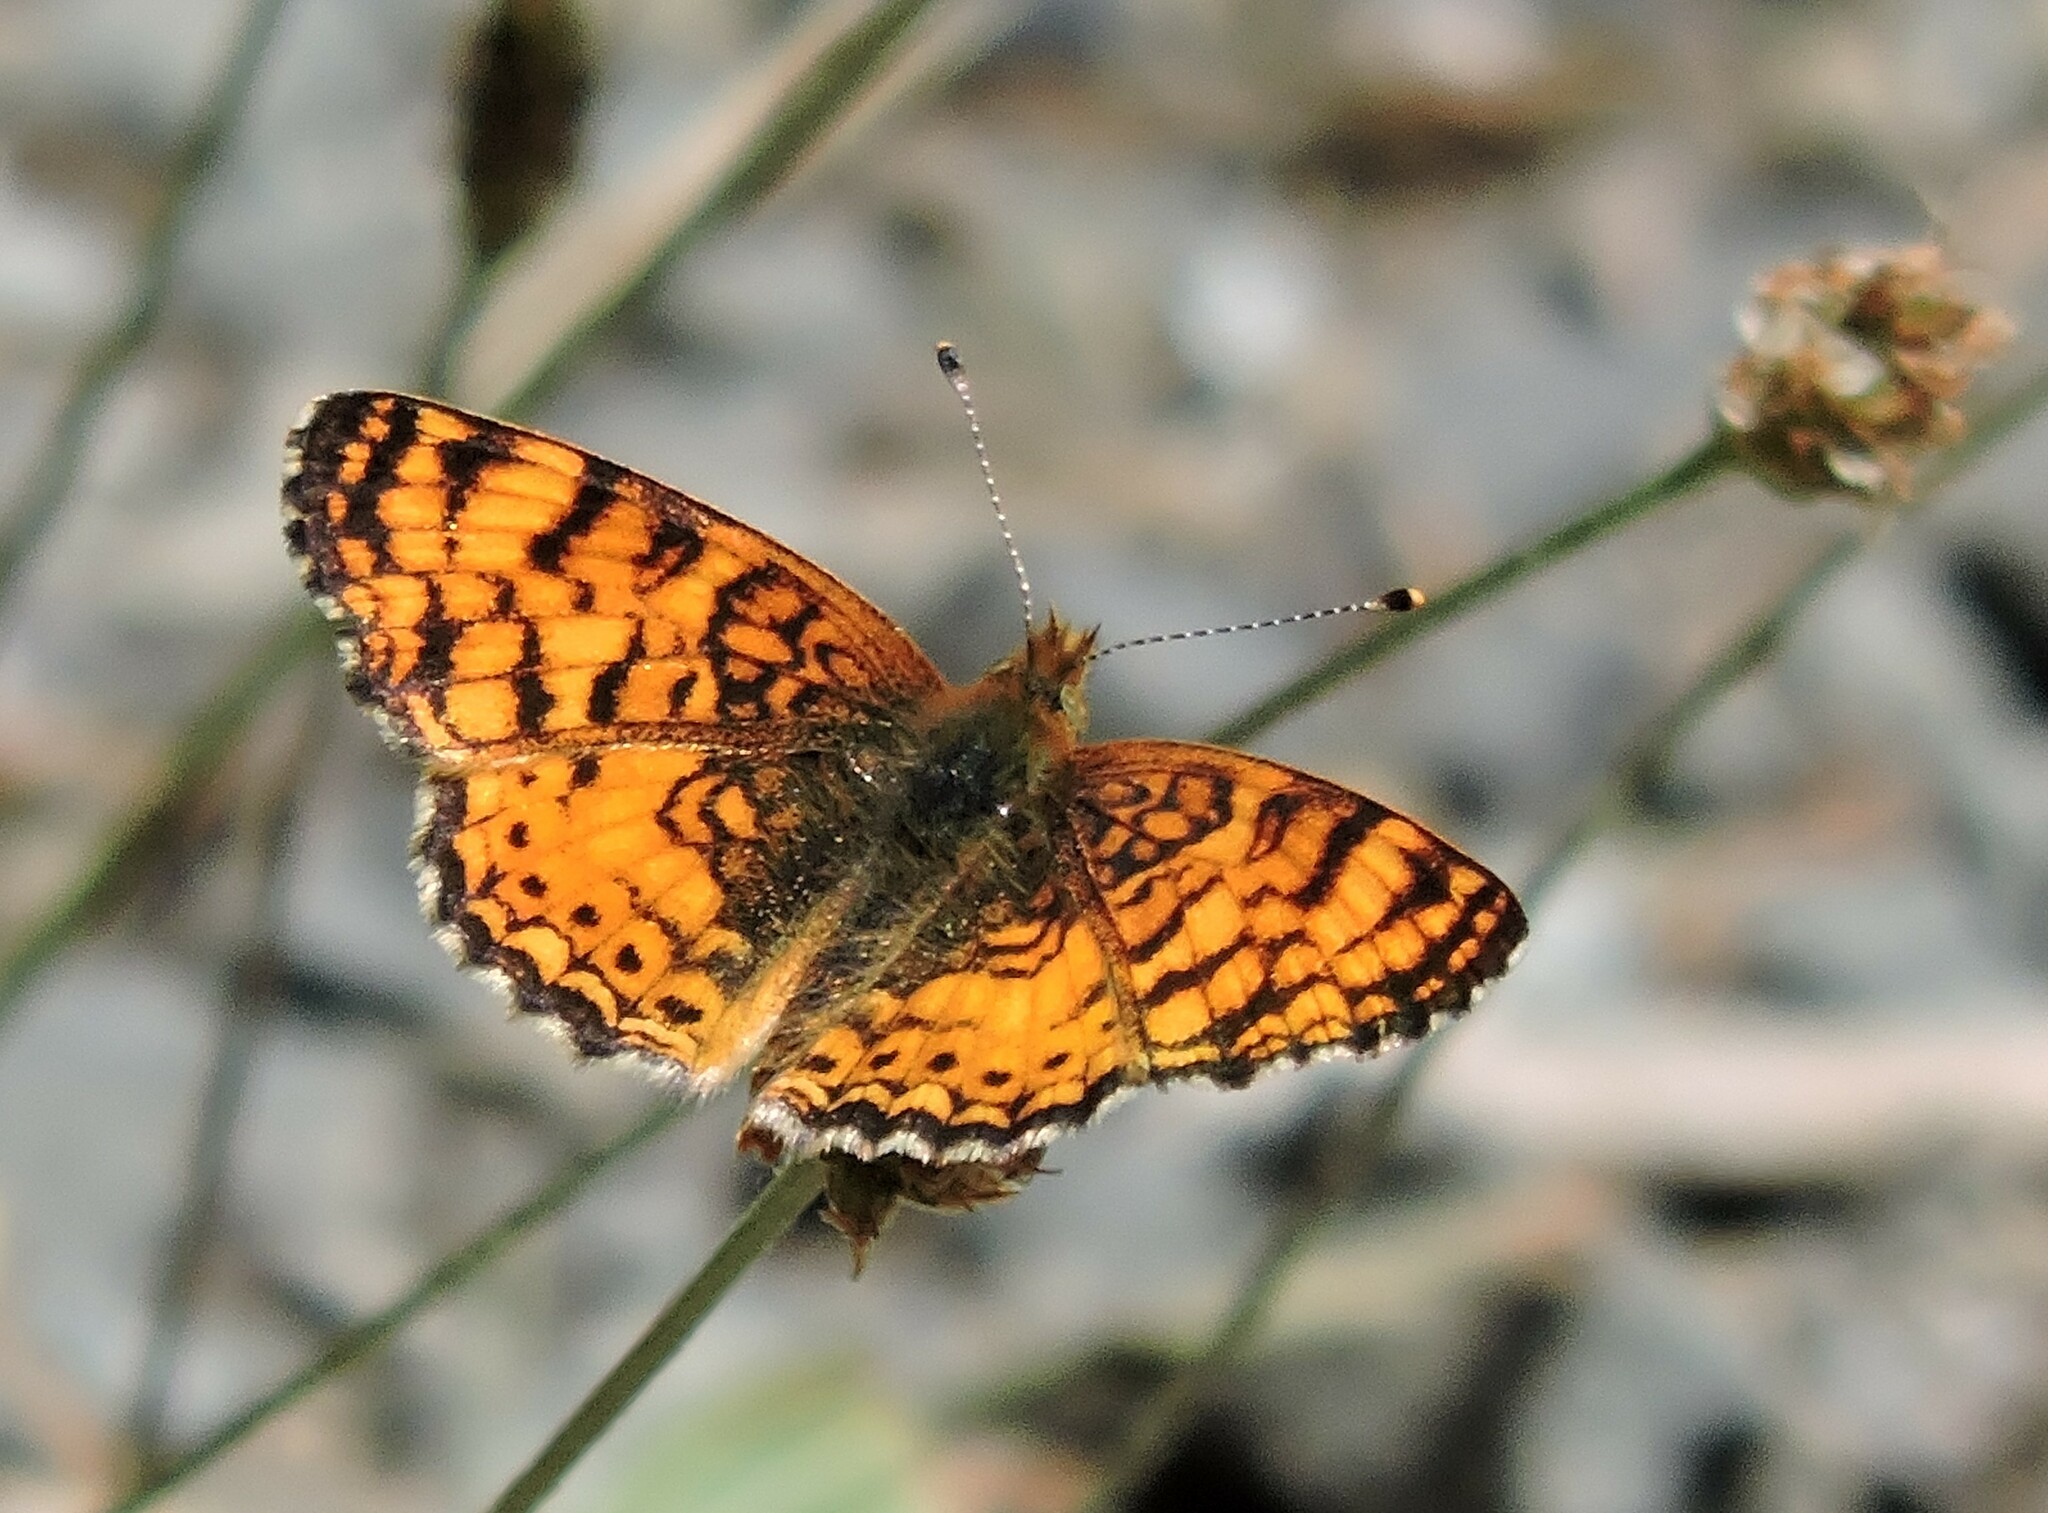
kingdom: Animalia
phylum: Arthropoda
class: Insecta
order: Lepidoptera
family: Nymphalidae
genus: Eresia
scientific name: Eresia aveyrona
